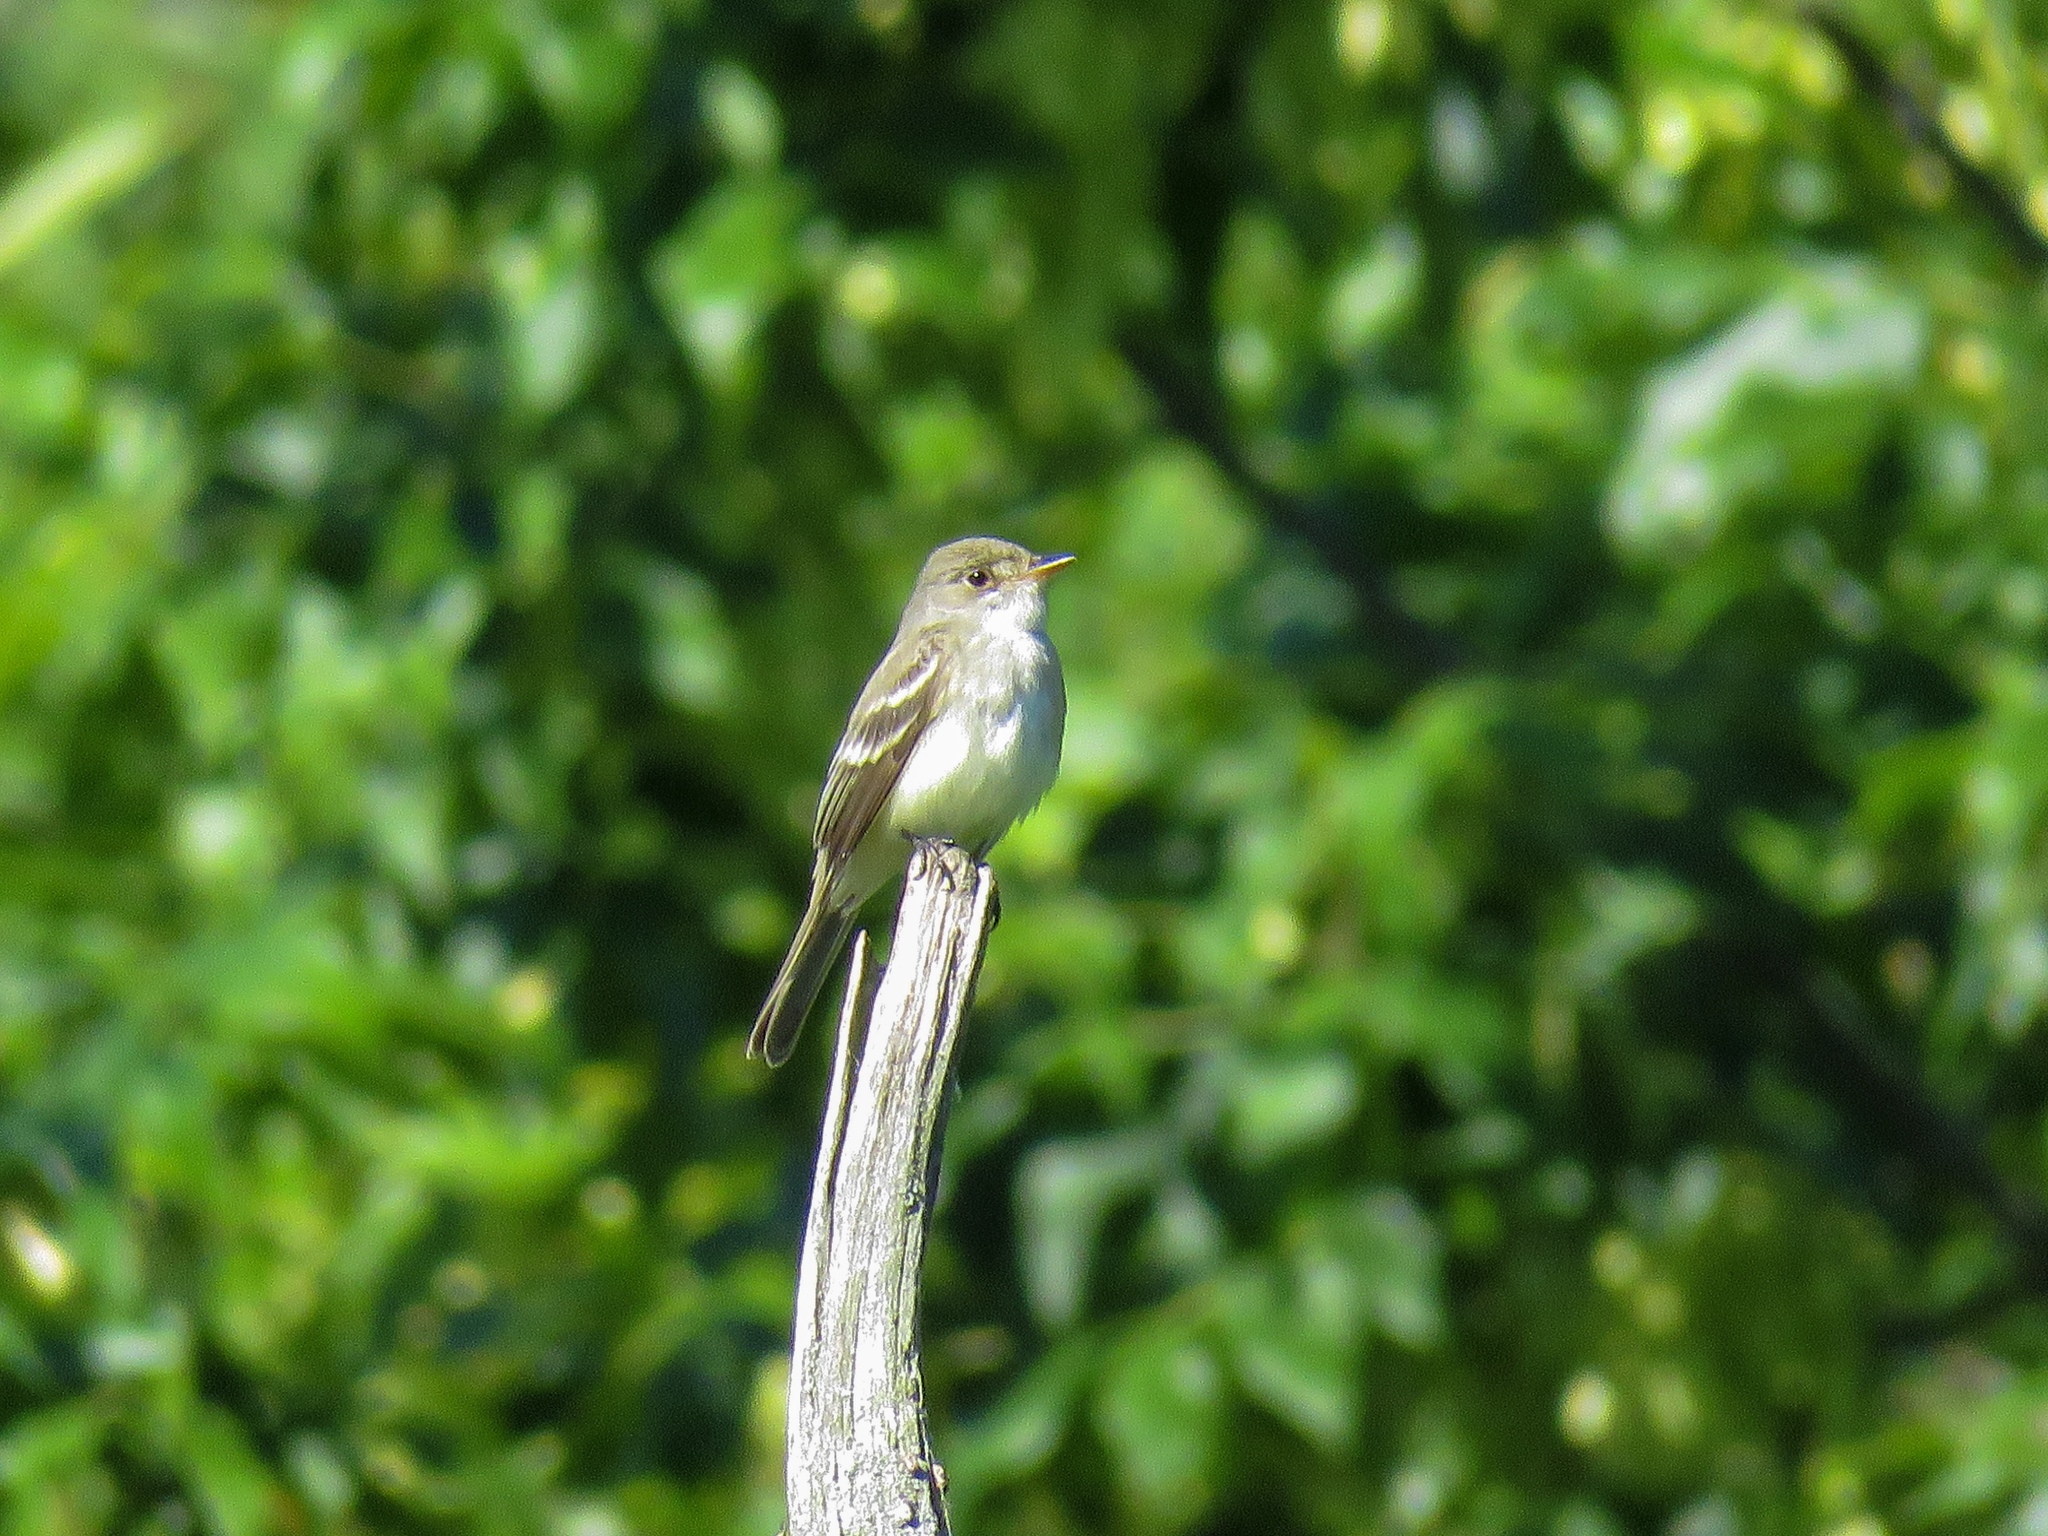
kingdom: Animalia
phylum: Chordata
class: Aves
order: Passeriformes
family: Tyrannidae
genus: Empidonax
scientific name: Empidonax traillii
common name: Willow flycatcher
